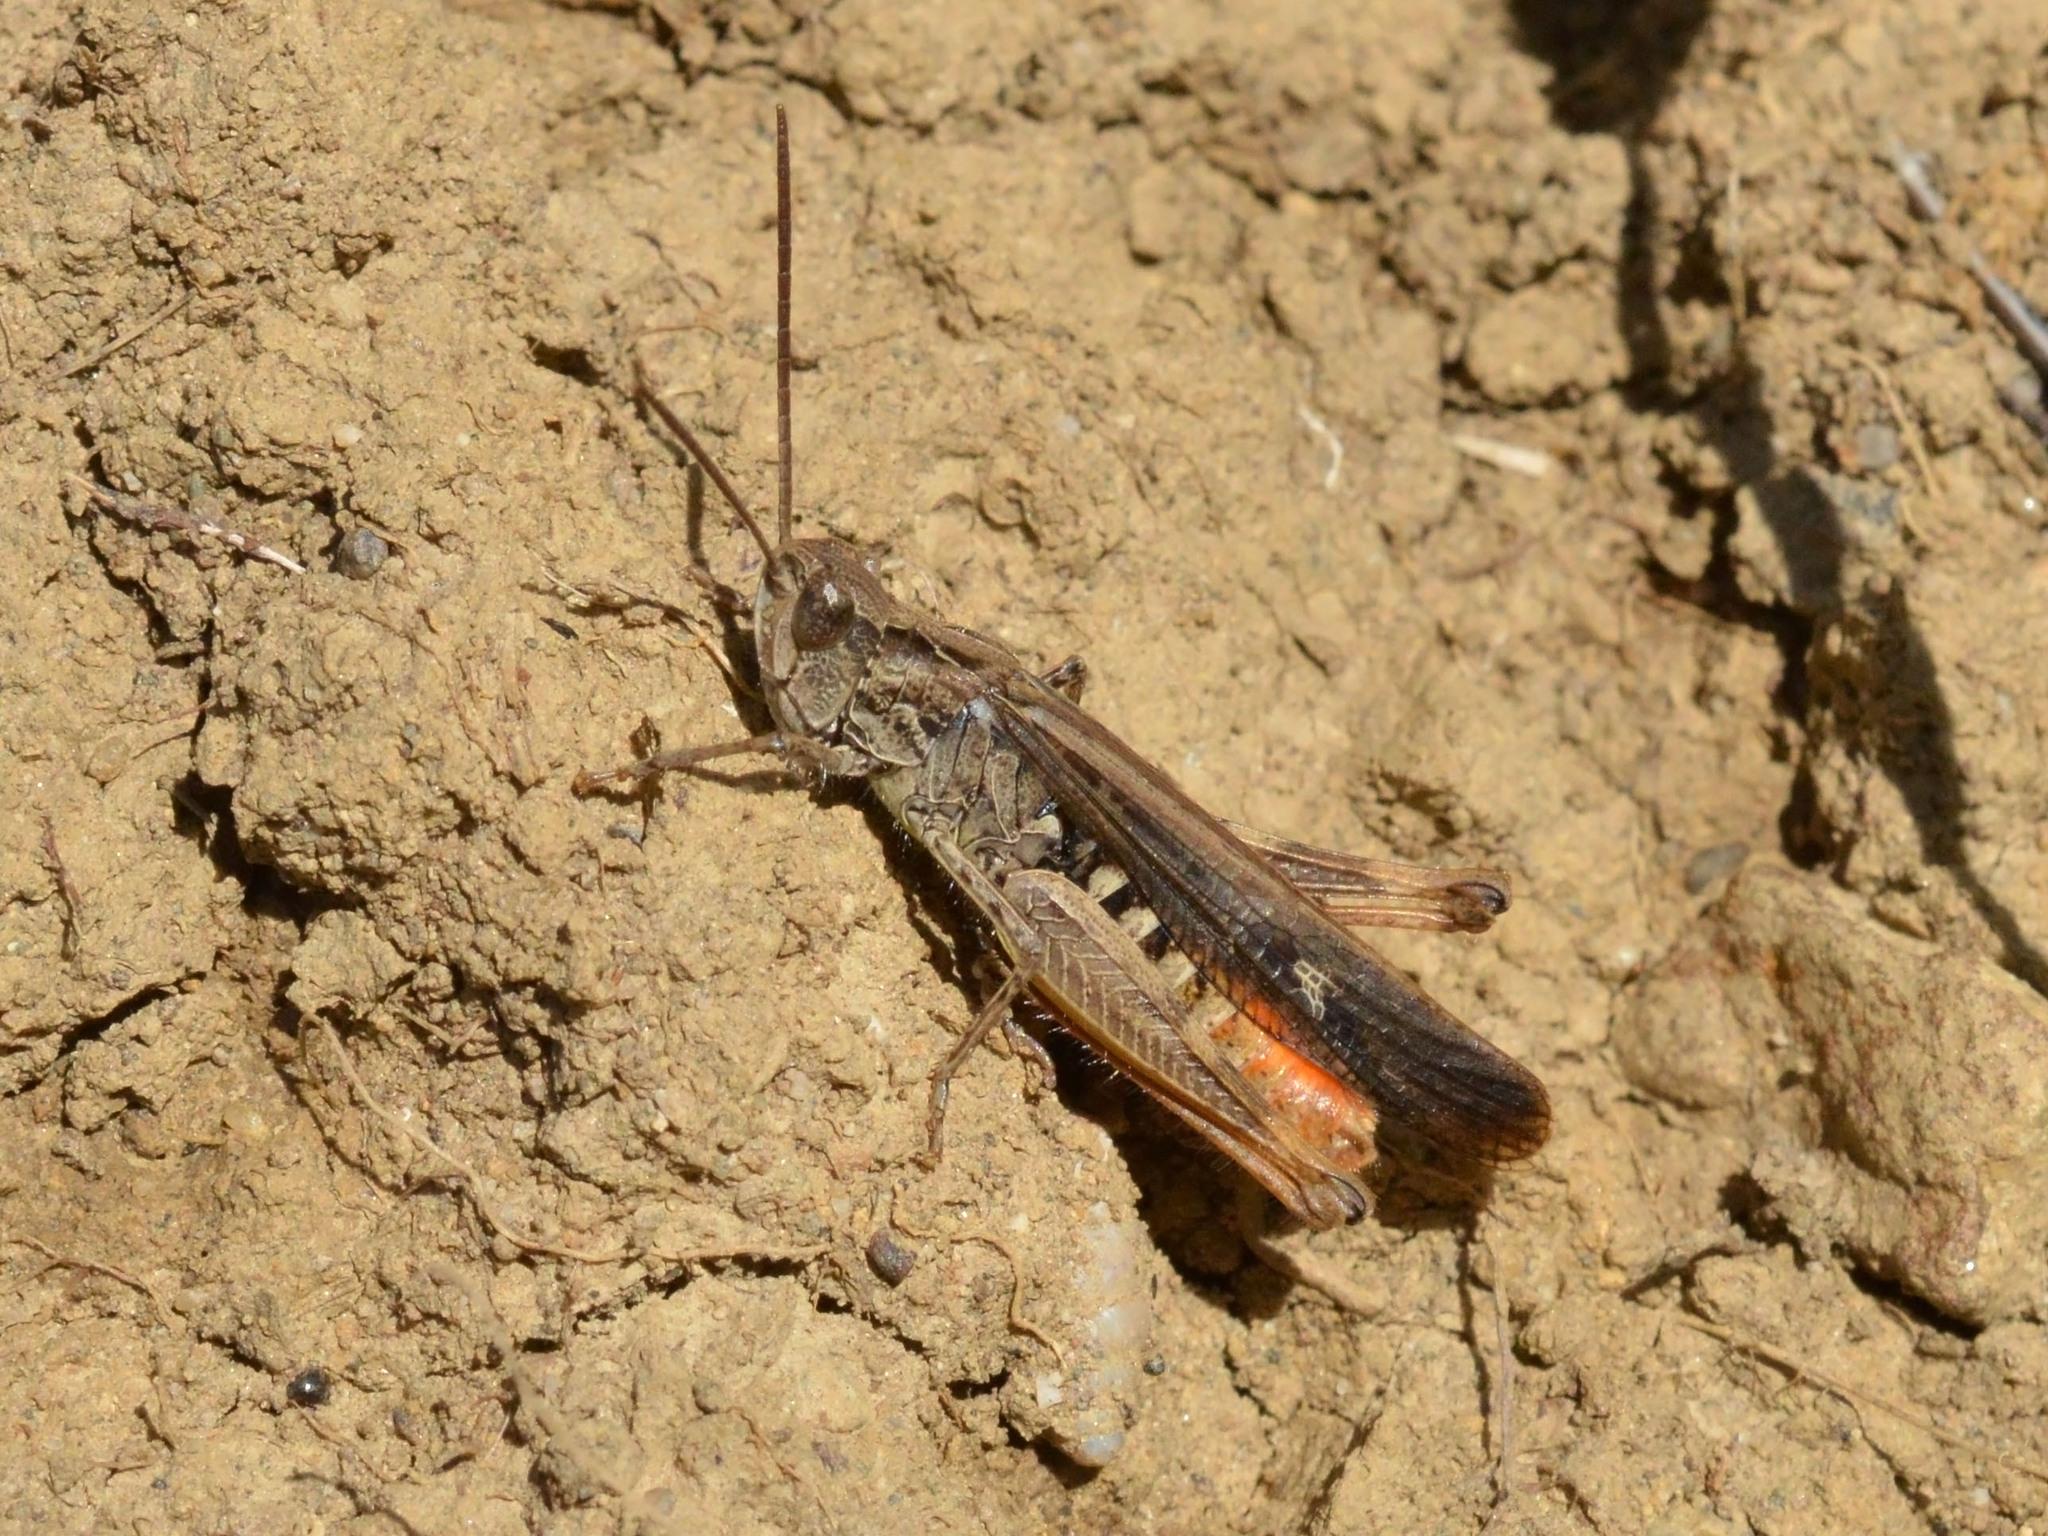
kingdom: Animalia
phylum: Arthropoda
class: Insecta
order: Orthoptera
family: Acrididae
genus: Chorthippus
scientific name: Chorthippus brunneus
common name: Field grasshopper
